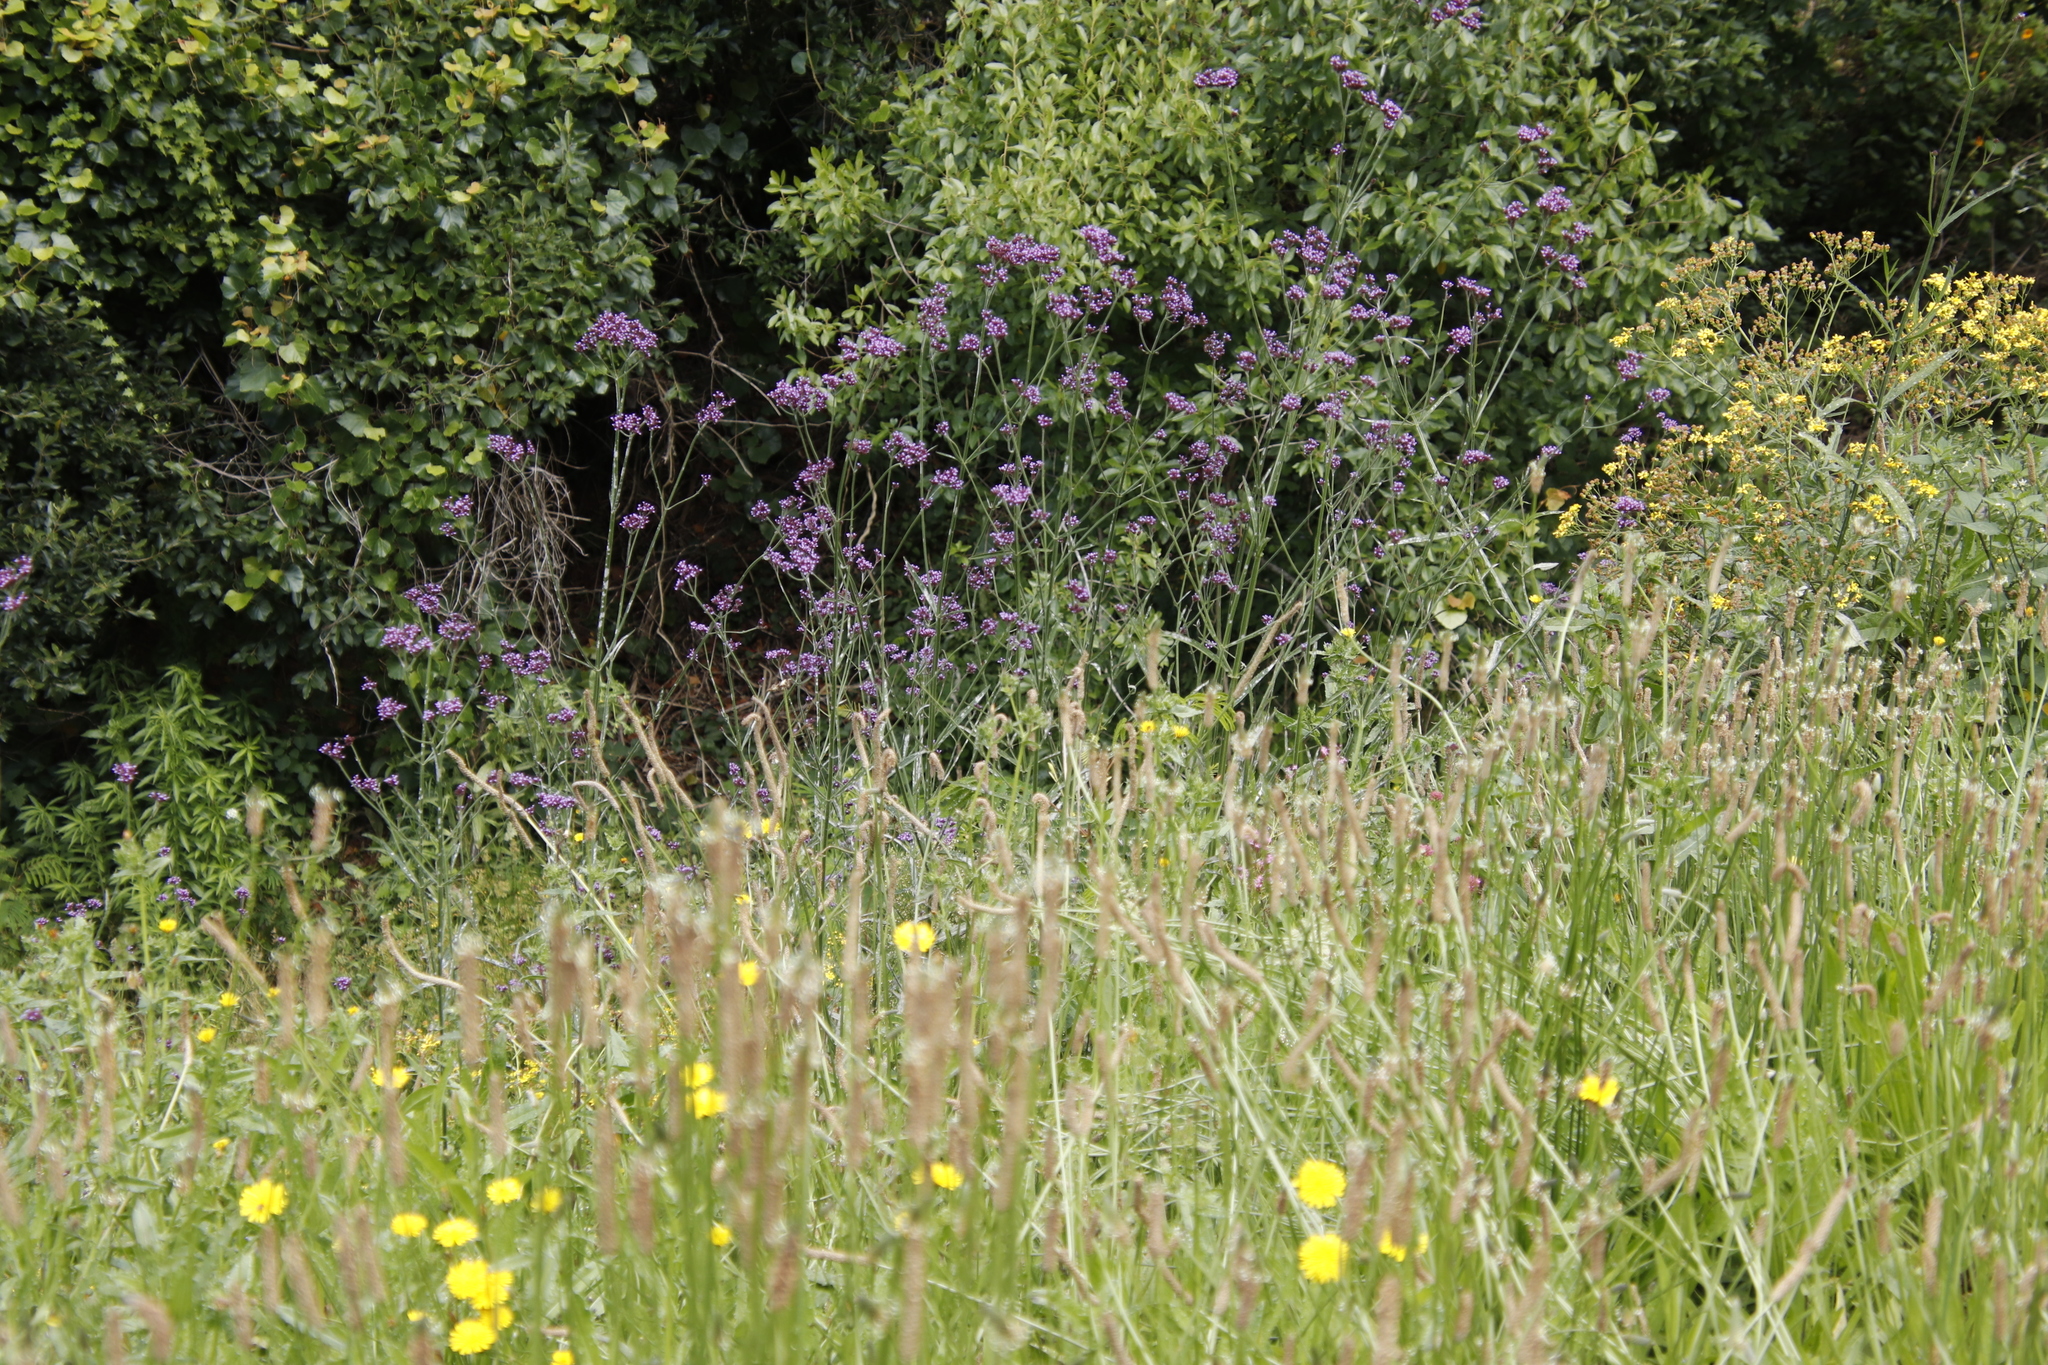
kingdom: Plantae
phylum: Tracheophyta
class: Magnoliopsida
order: Lamiales
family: Verbenaceae
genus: Verbena
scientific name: Verbena bonariensis
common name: Purpletop vervain
